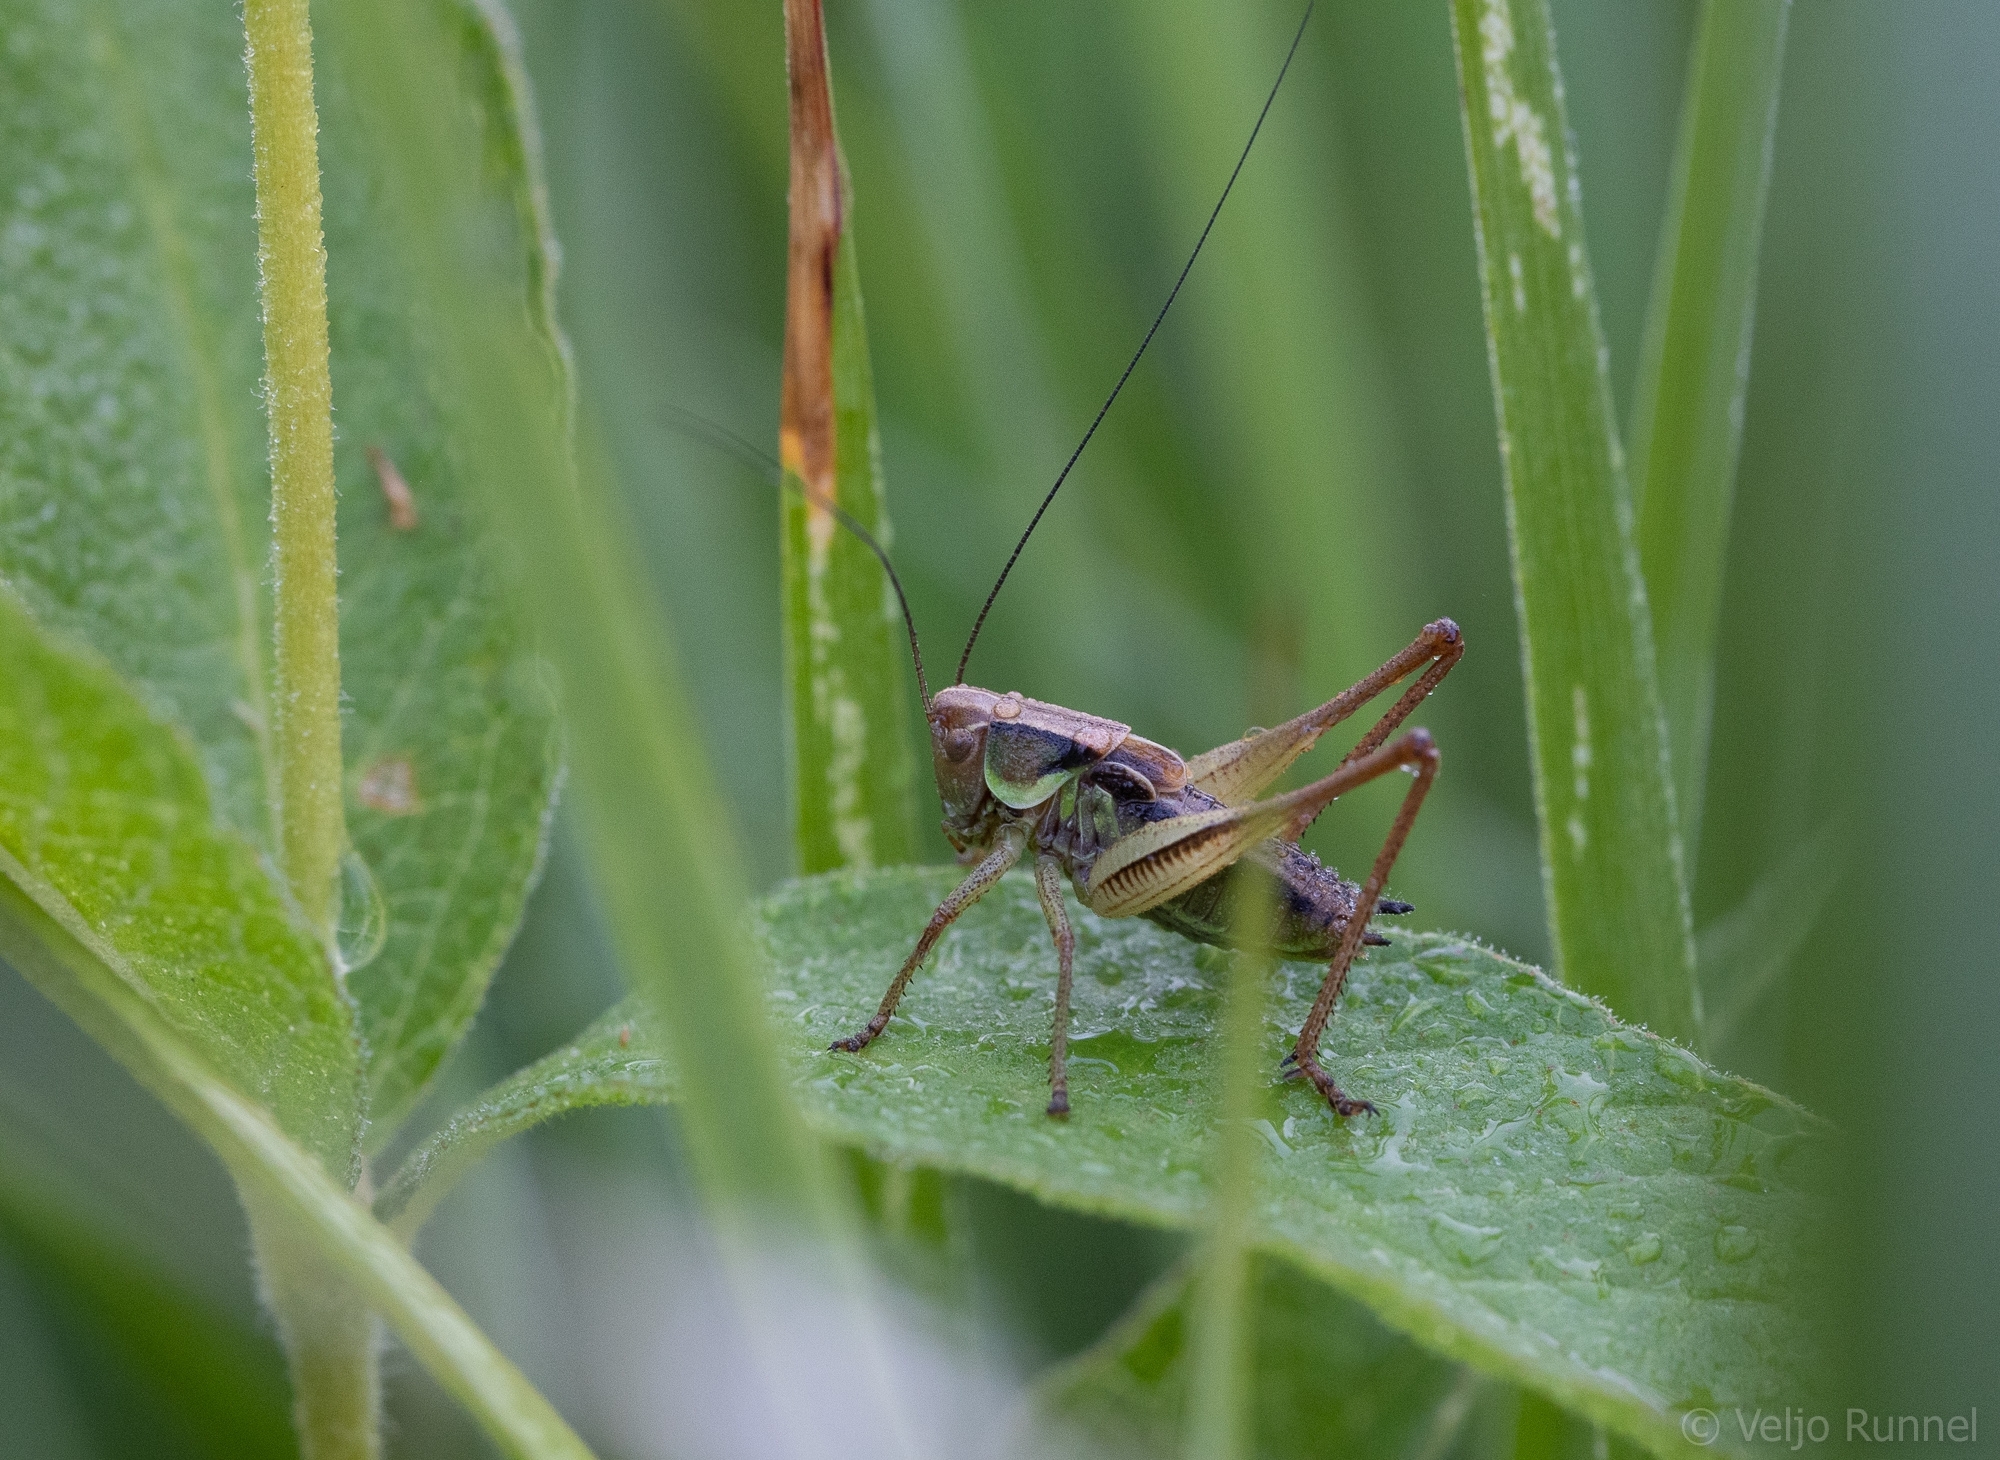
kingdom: Animalia
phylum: Arthropoda
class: Insecta
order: Orthoptera
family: Tettigoniidae
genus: Roeseliana
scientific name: Roeseliana roeselii
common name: Roesel's bush cricket
